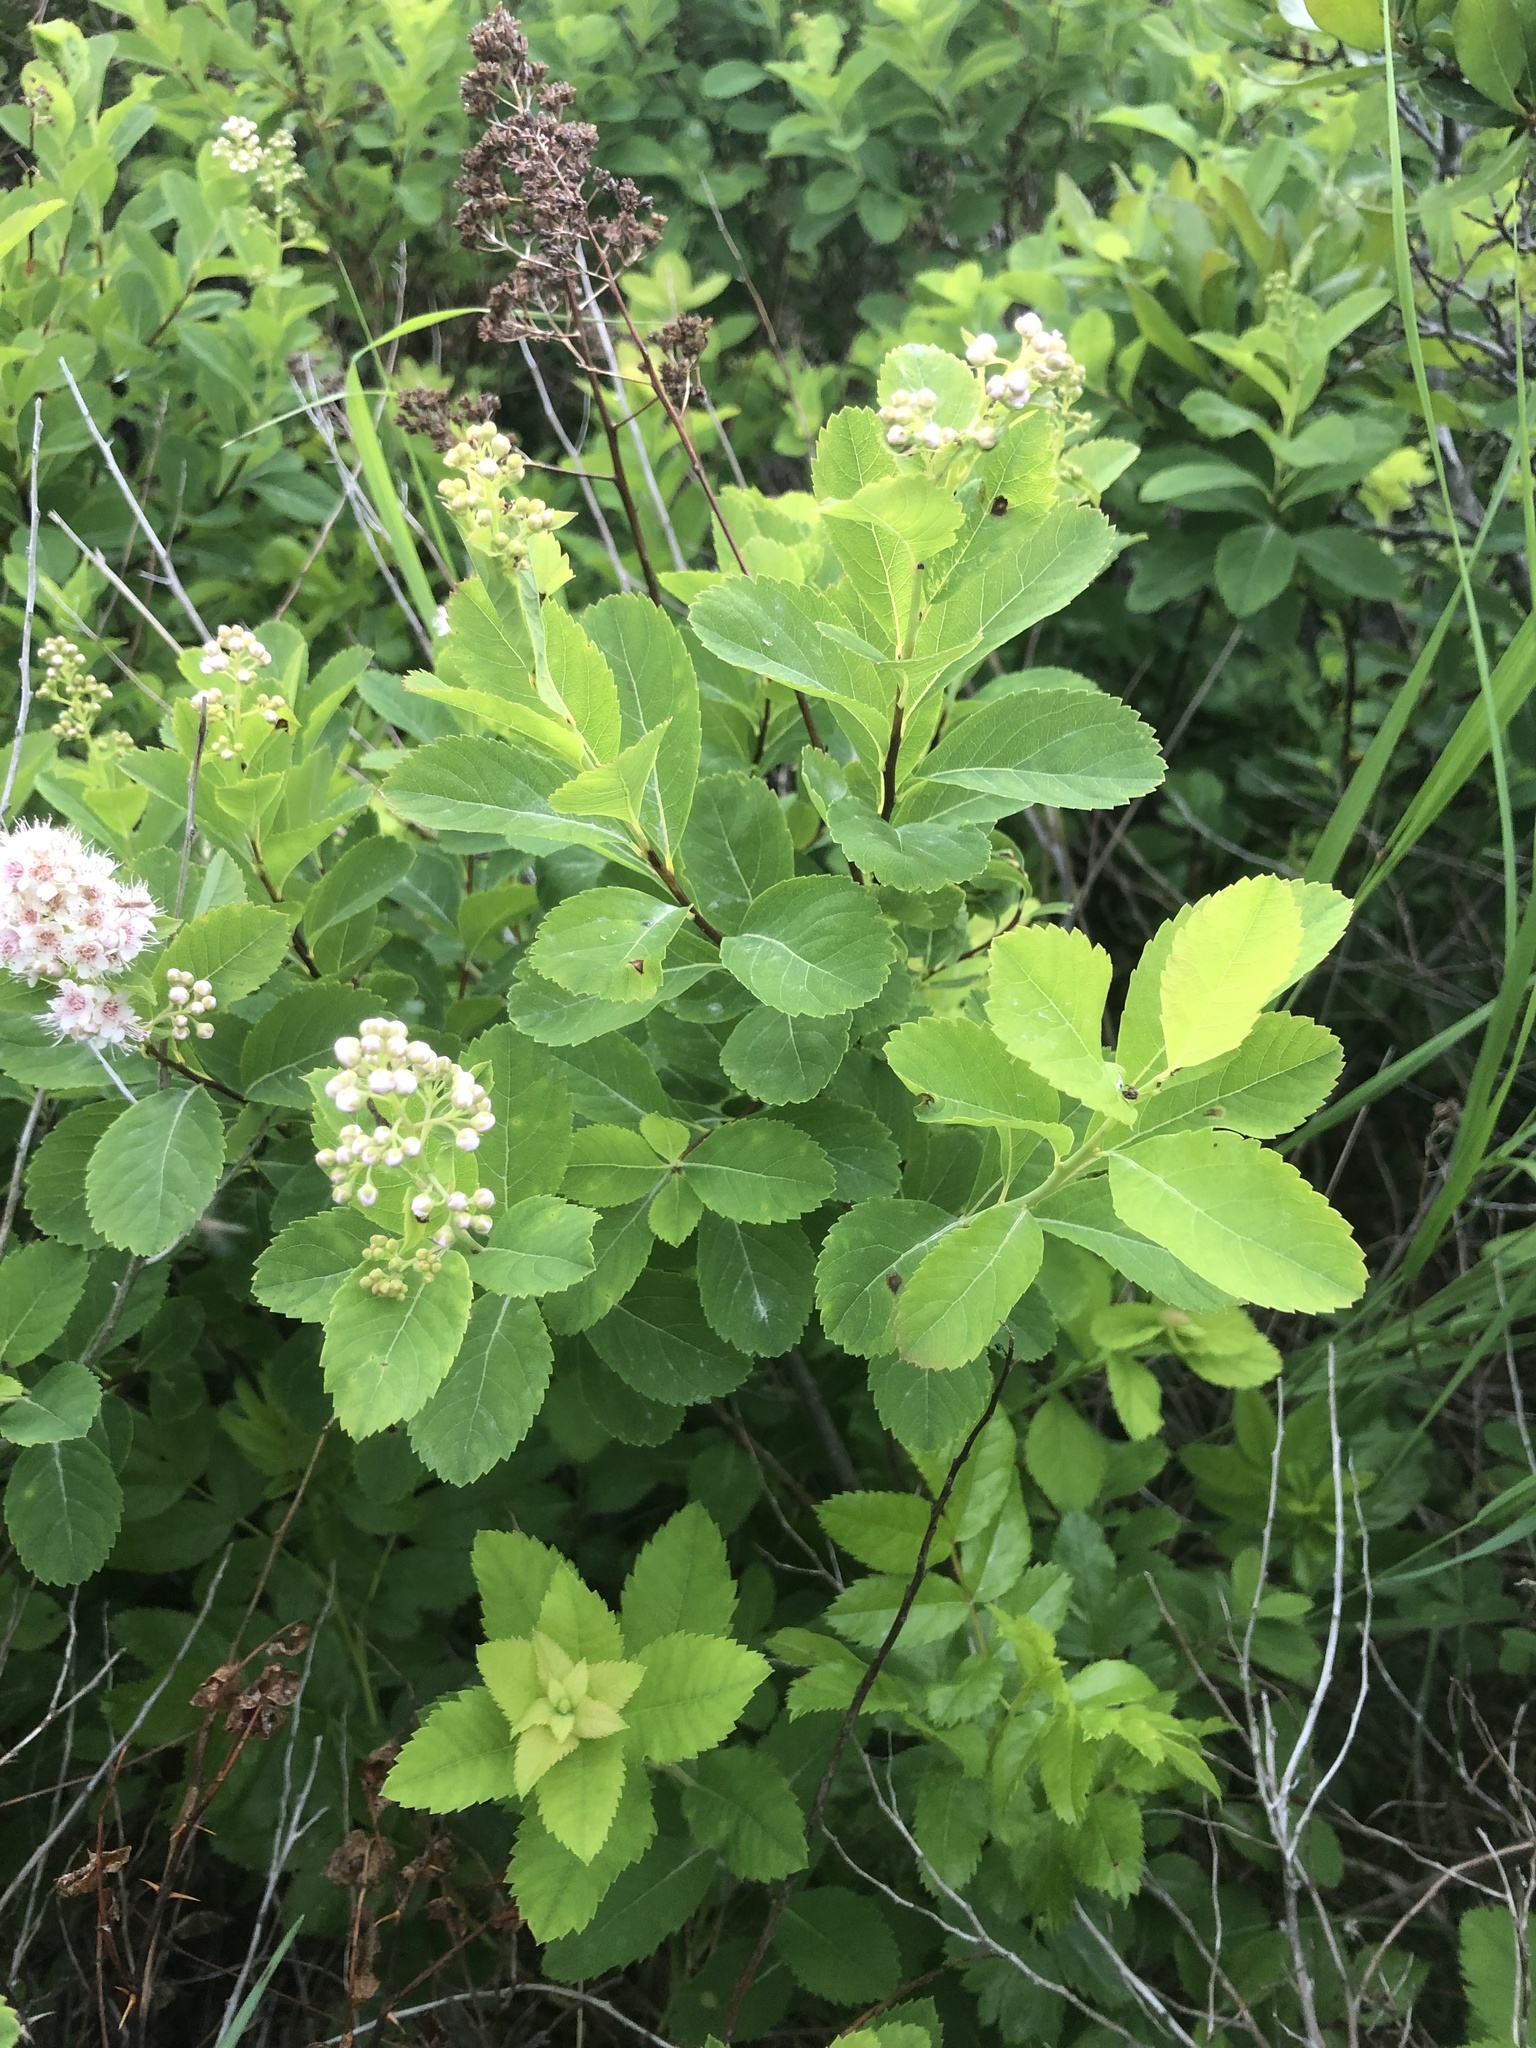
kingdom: Plantae
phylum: Tracheophyta
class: Magnoliopsida
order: Rosales
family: Rosaceae
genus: Spiraea
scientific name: Spiraea alba
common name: Pale bridewort
